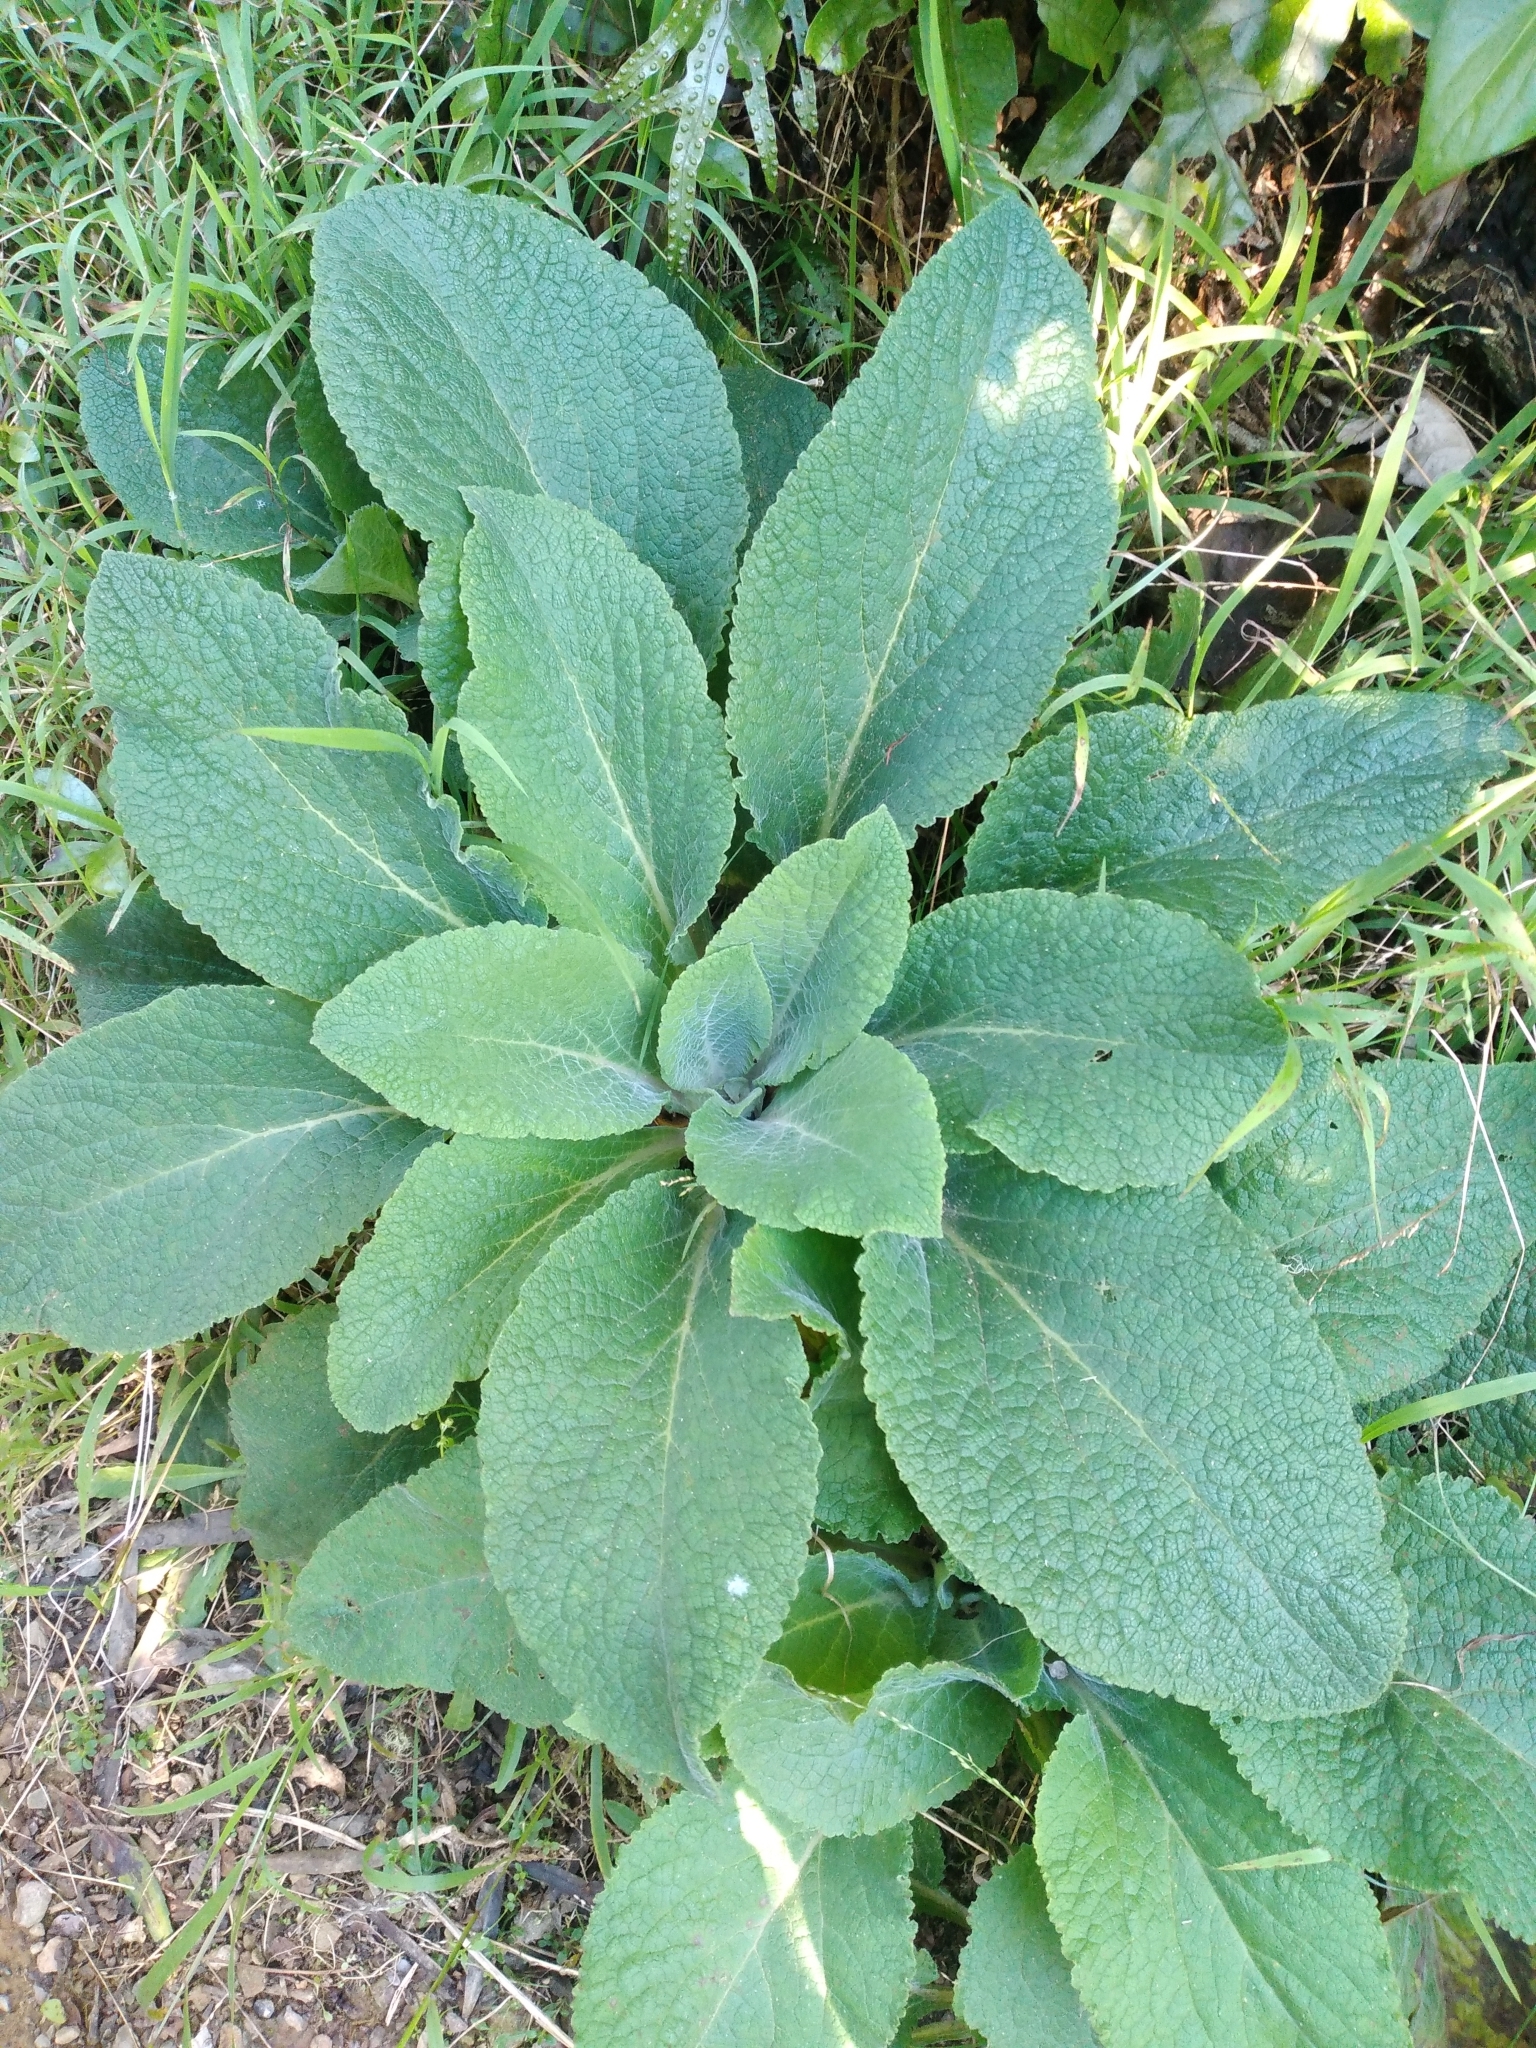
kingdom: Plantae
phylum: Tracheophyta
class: Magnoliopsida
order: Lamiales
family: Plantaginaceae
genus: Digitalis
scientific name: Digitalis purpurea
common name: Foxglove
